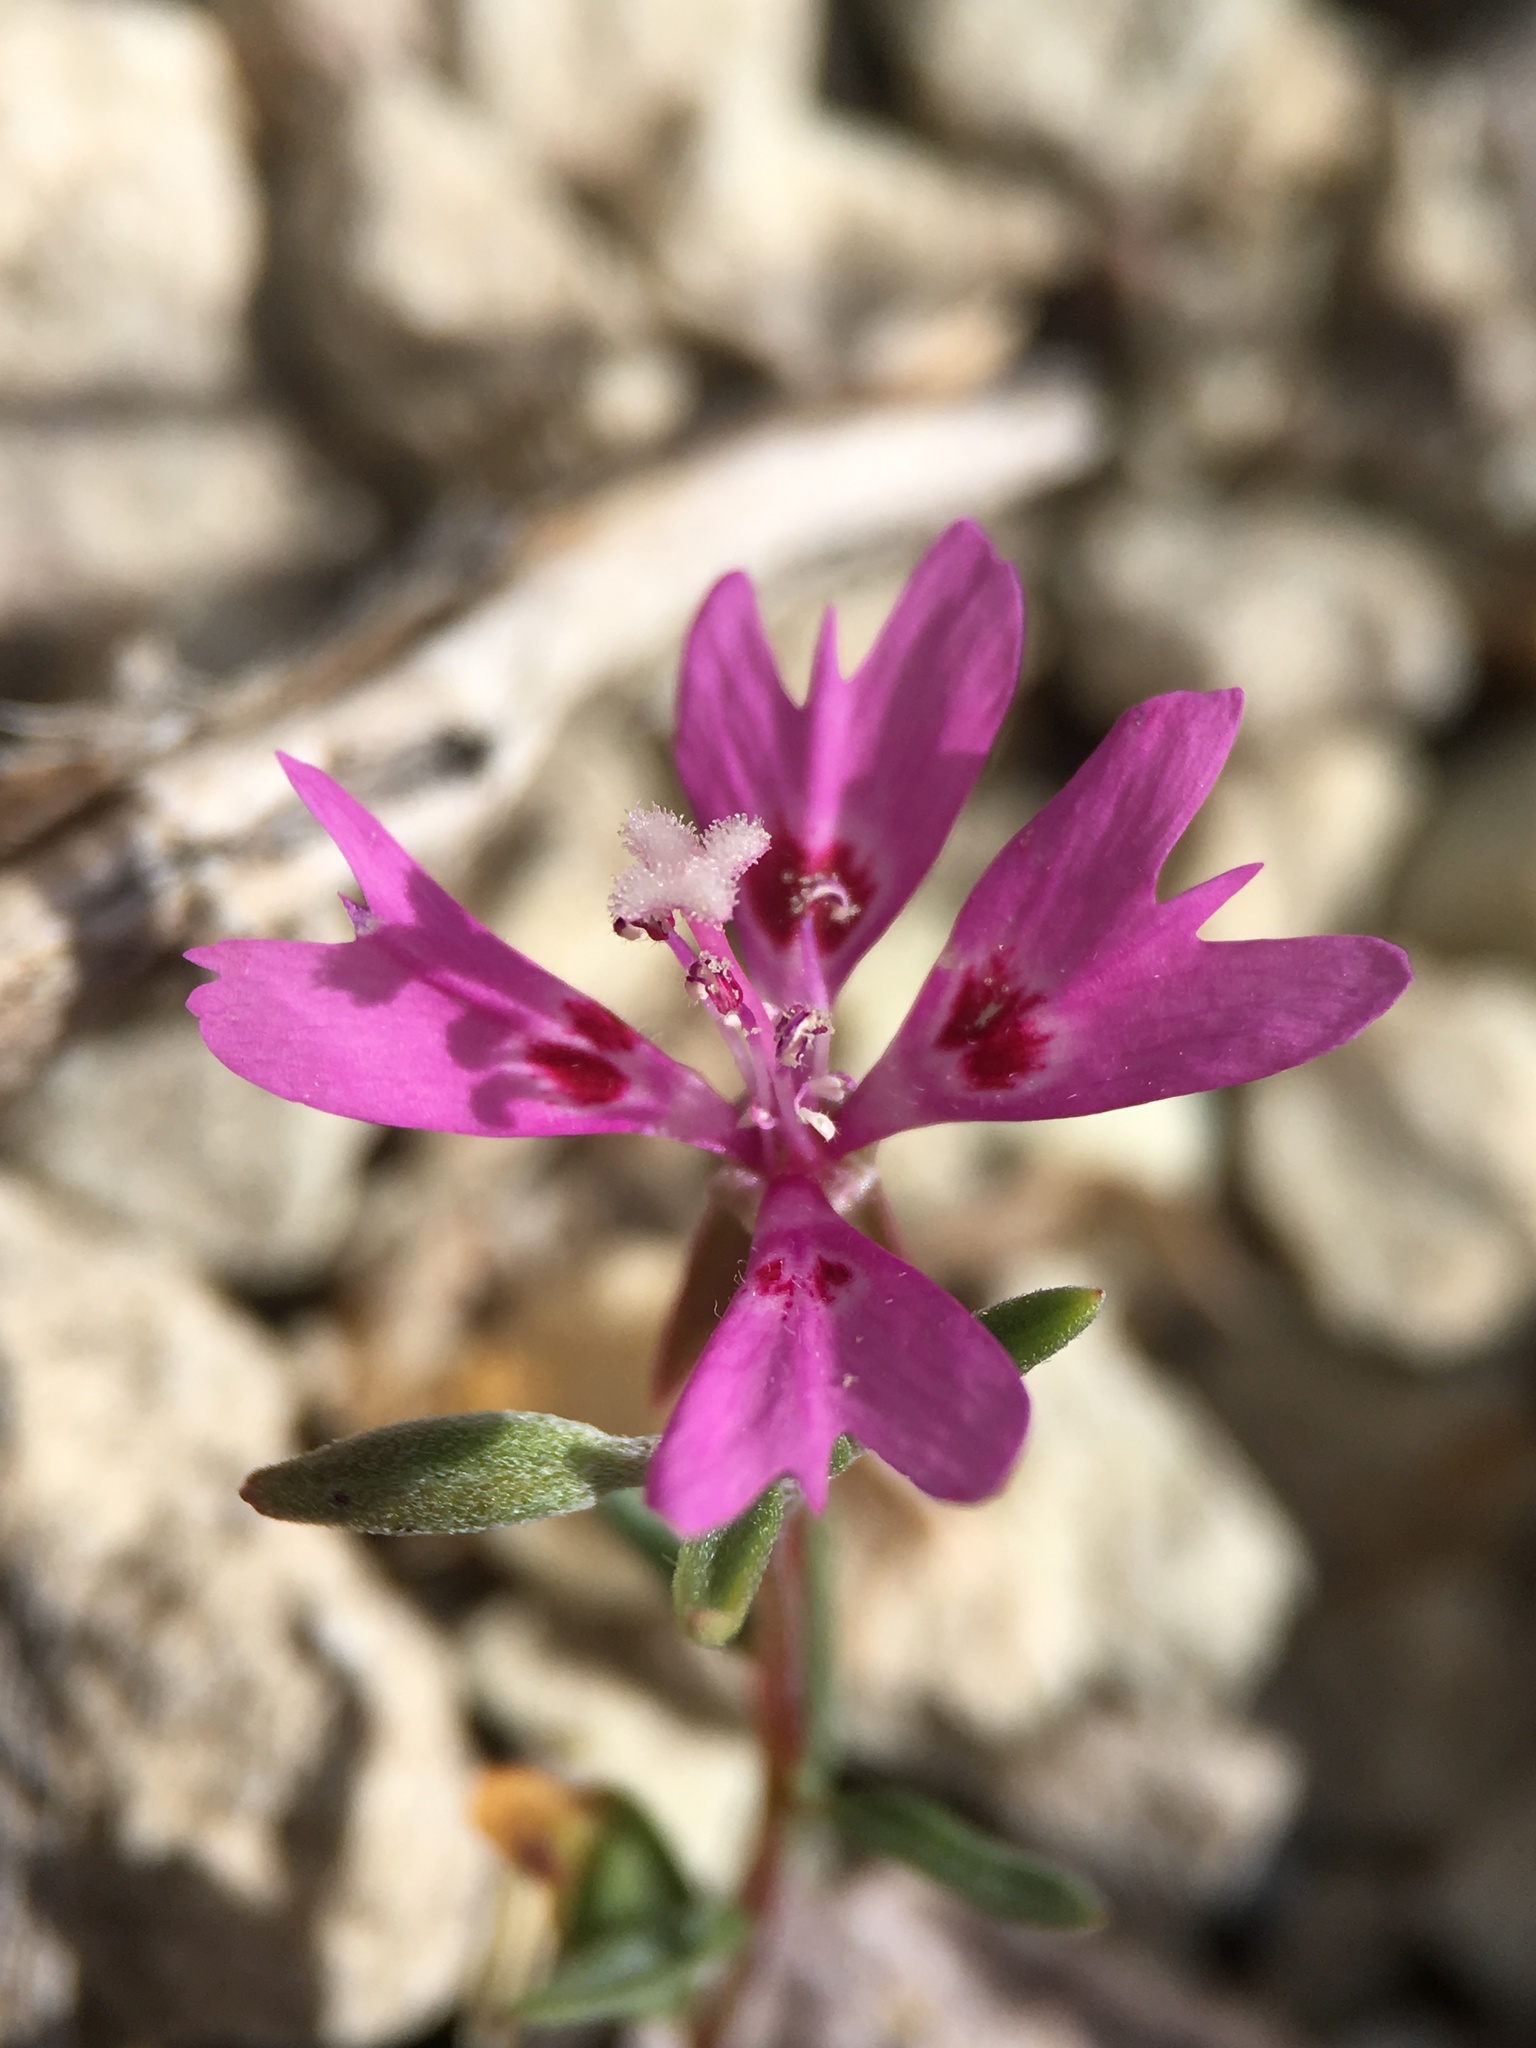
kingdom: Plantae
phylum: Tracheophyta
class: Magnoliopsida
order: Myrtales
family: Onagraceae
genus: Clarkia
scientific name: Clarkia xantiana
